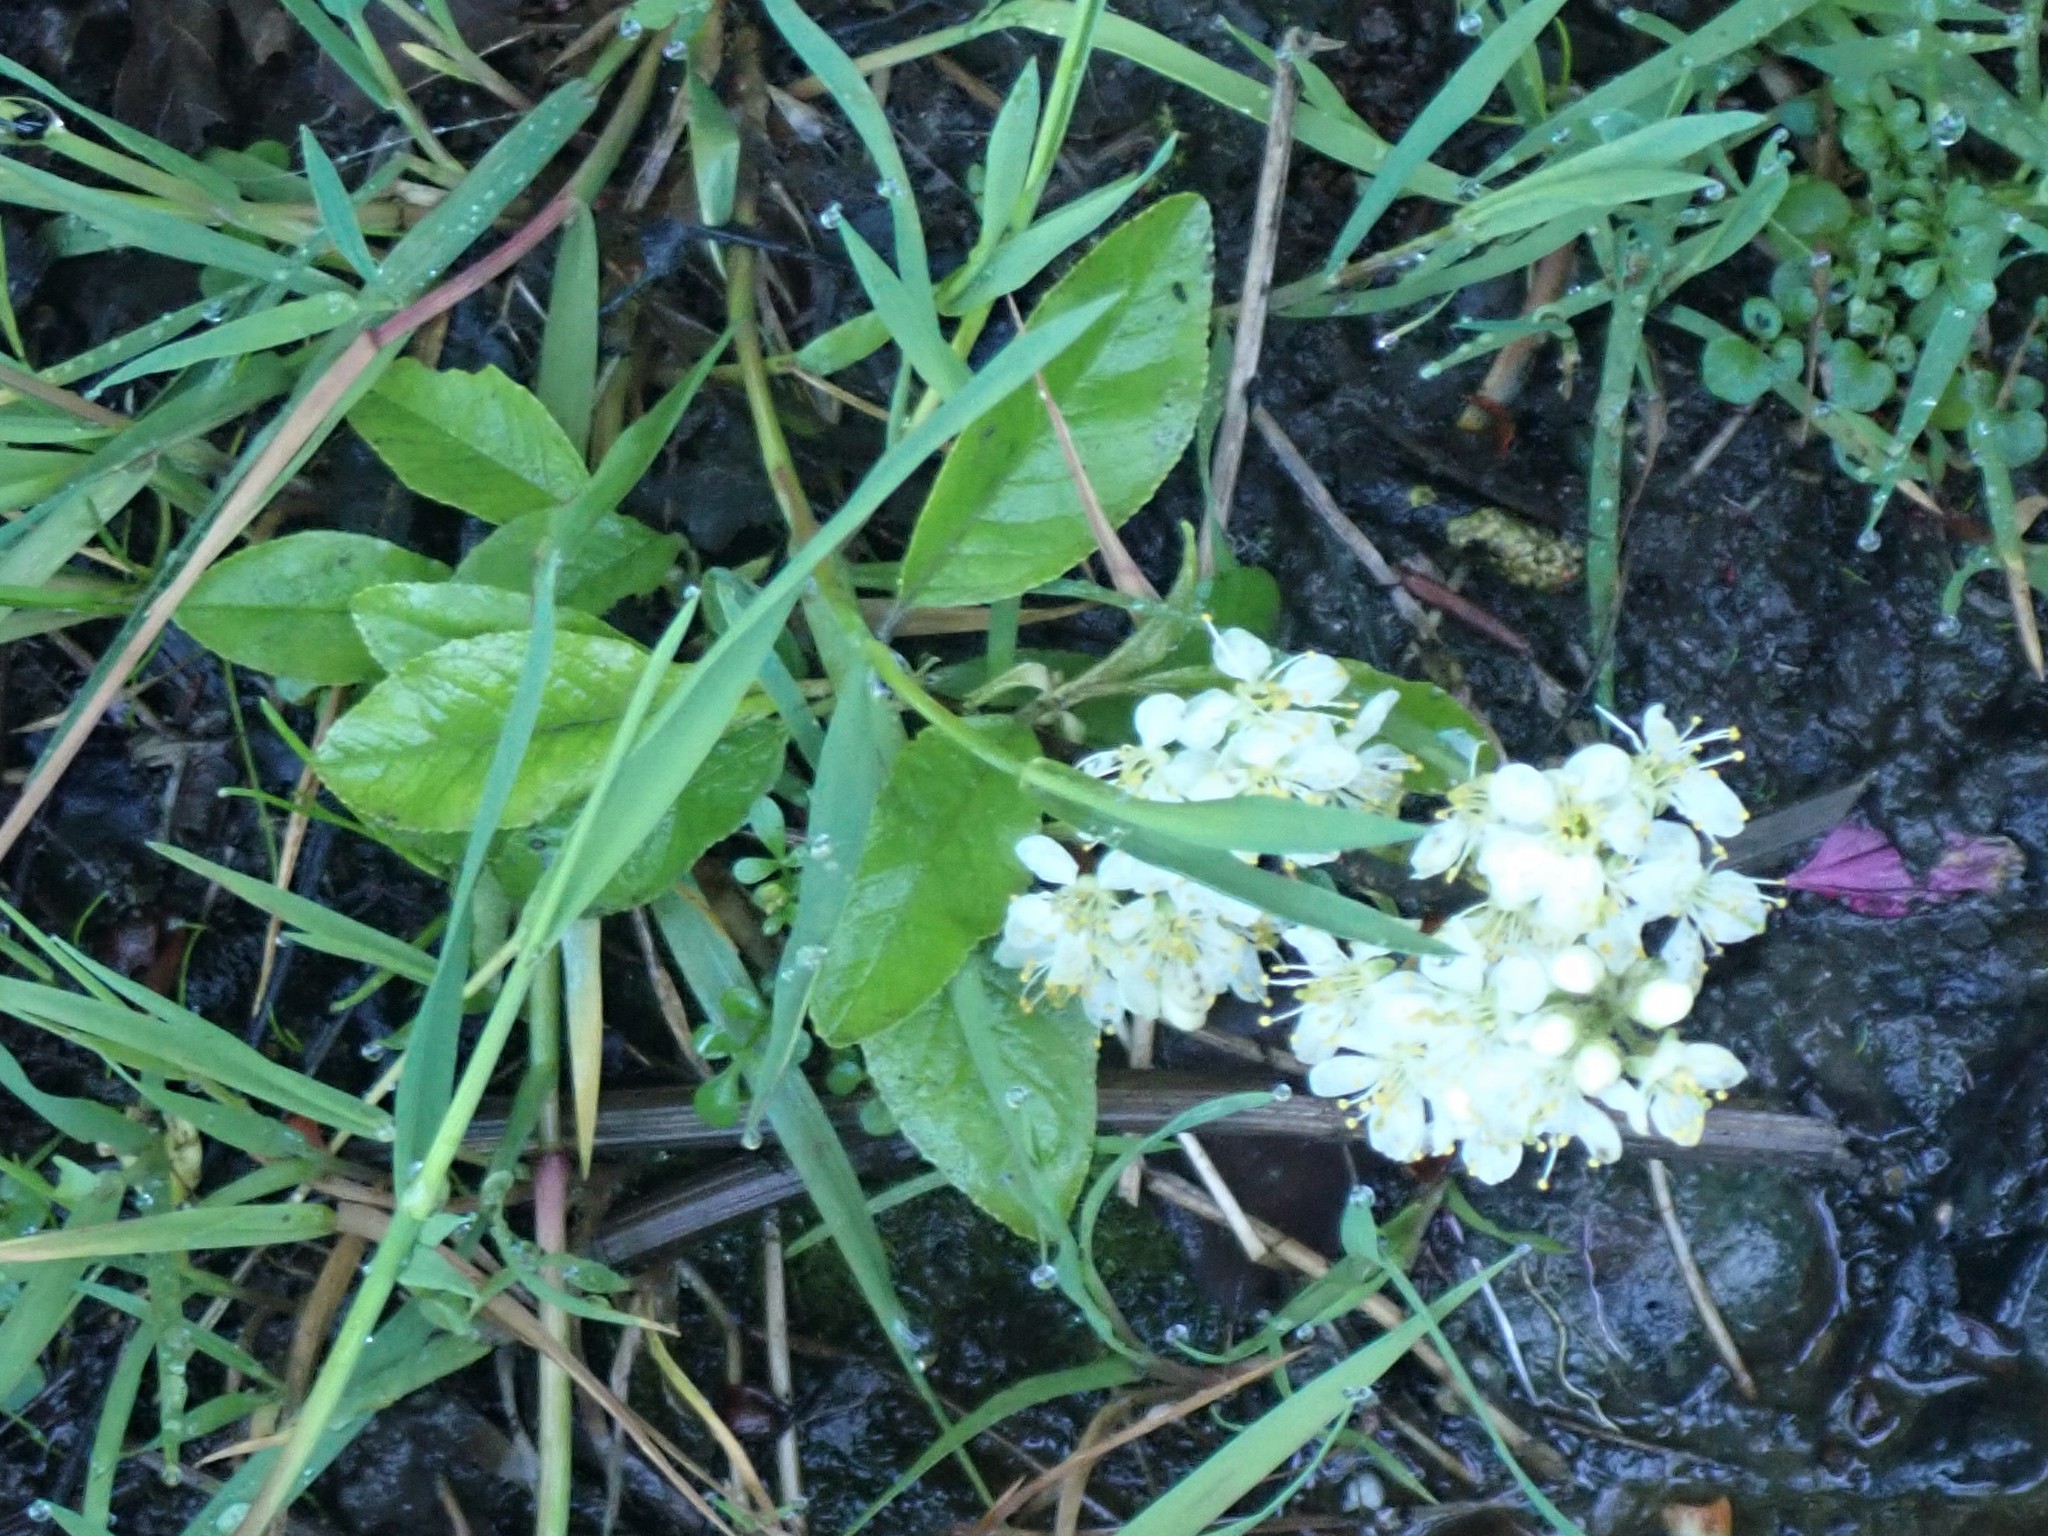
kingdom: Plantae
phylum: Tracheophyta
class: Magnoliopsida
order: Rosales
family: Rosaceae
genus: Prunus
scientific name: Prunus emarginata
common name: Bitter cherry
